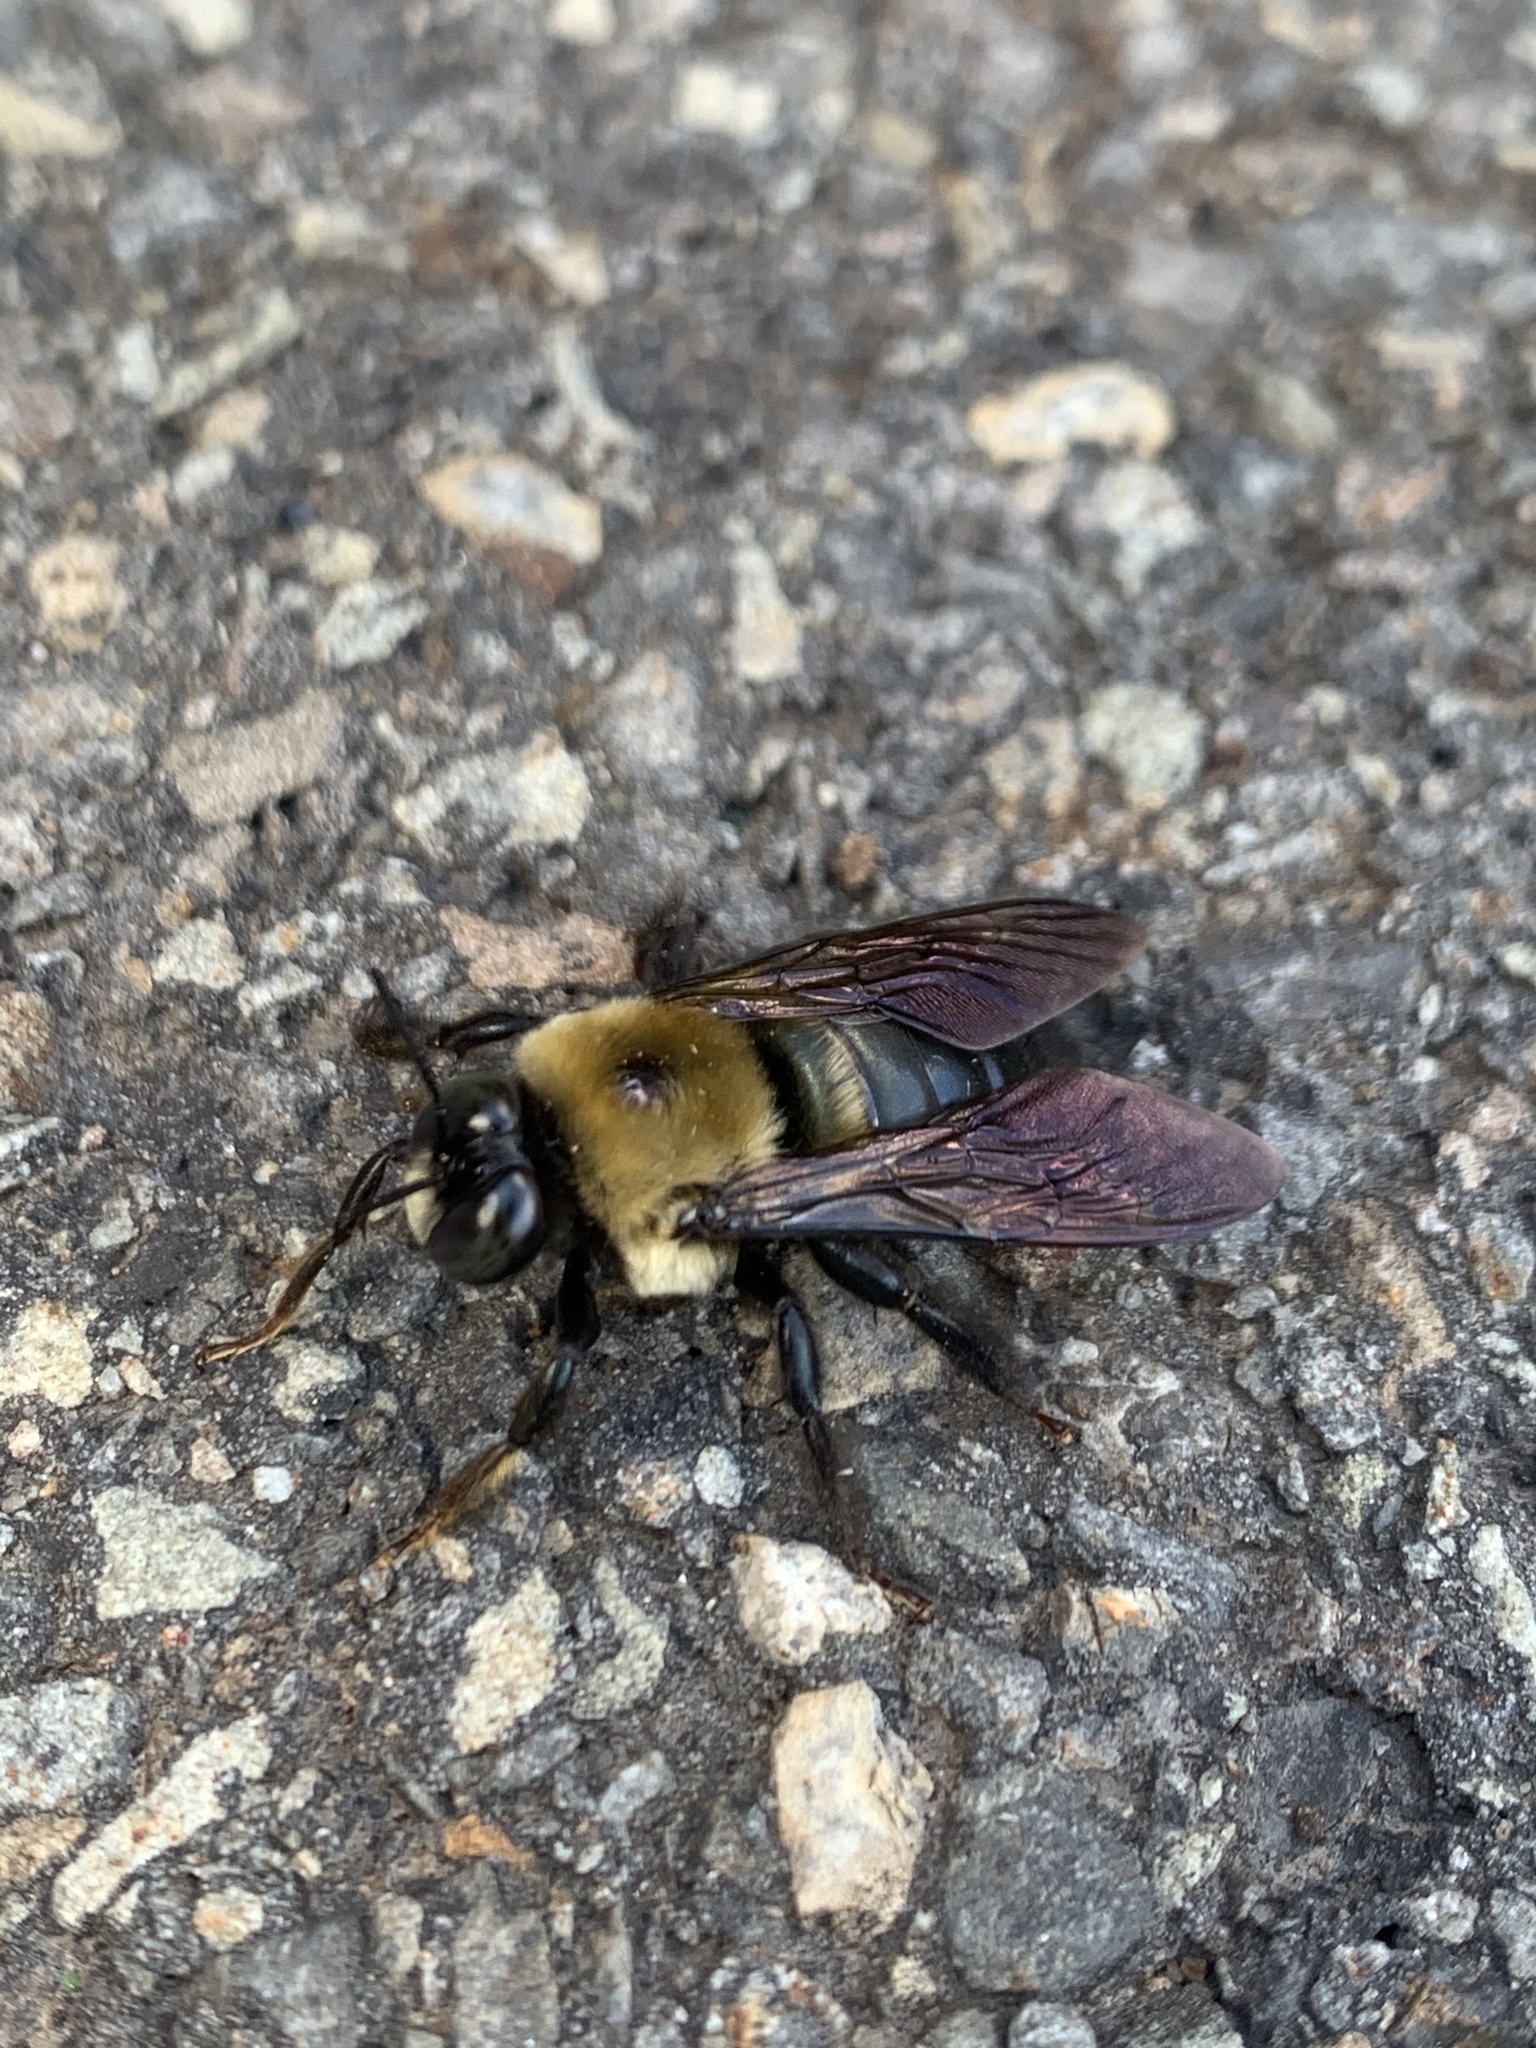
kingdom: Animalia
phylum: Arthropoda
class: Insecta
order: Hymenoptera
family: Apidae
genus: Xylocopa
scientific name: Xylocopa virginica
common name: Carpenter bee
